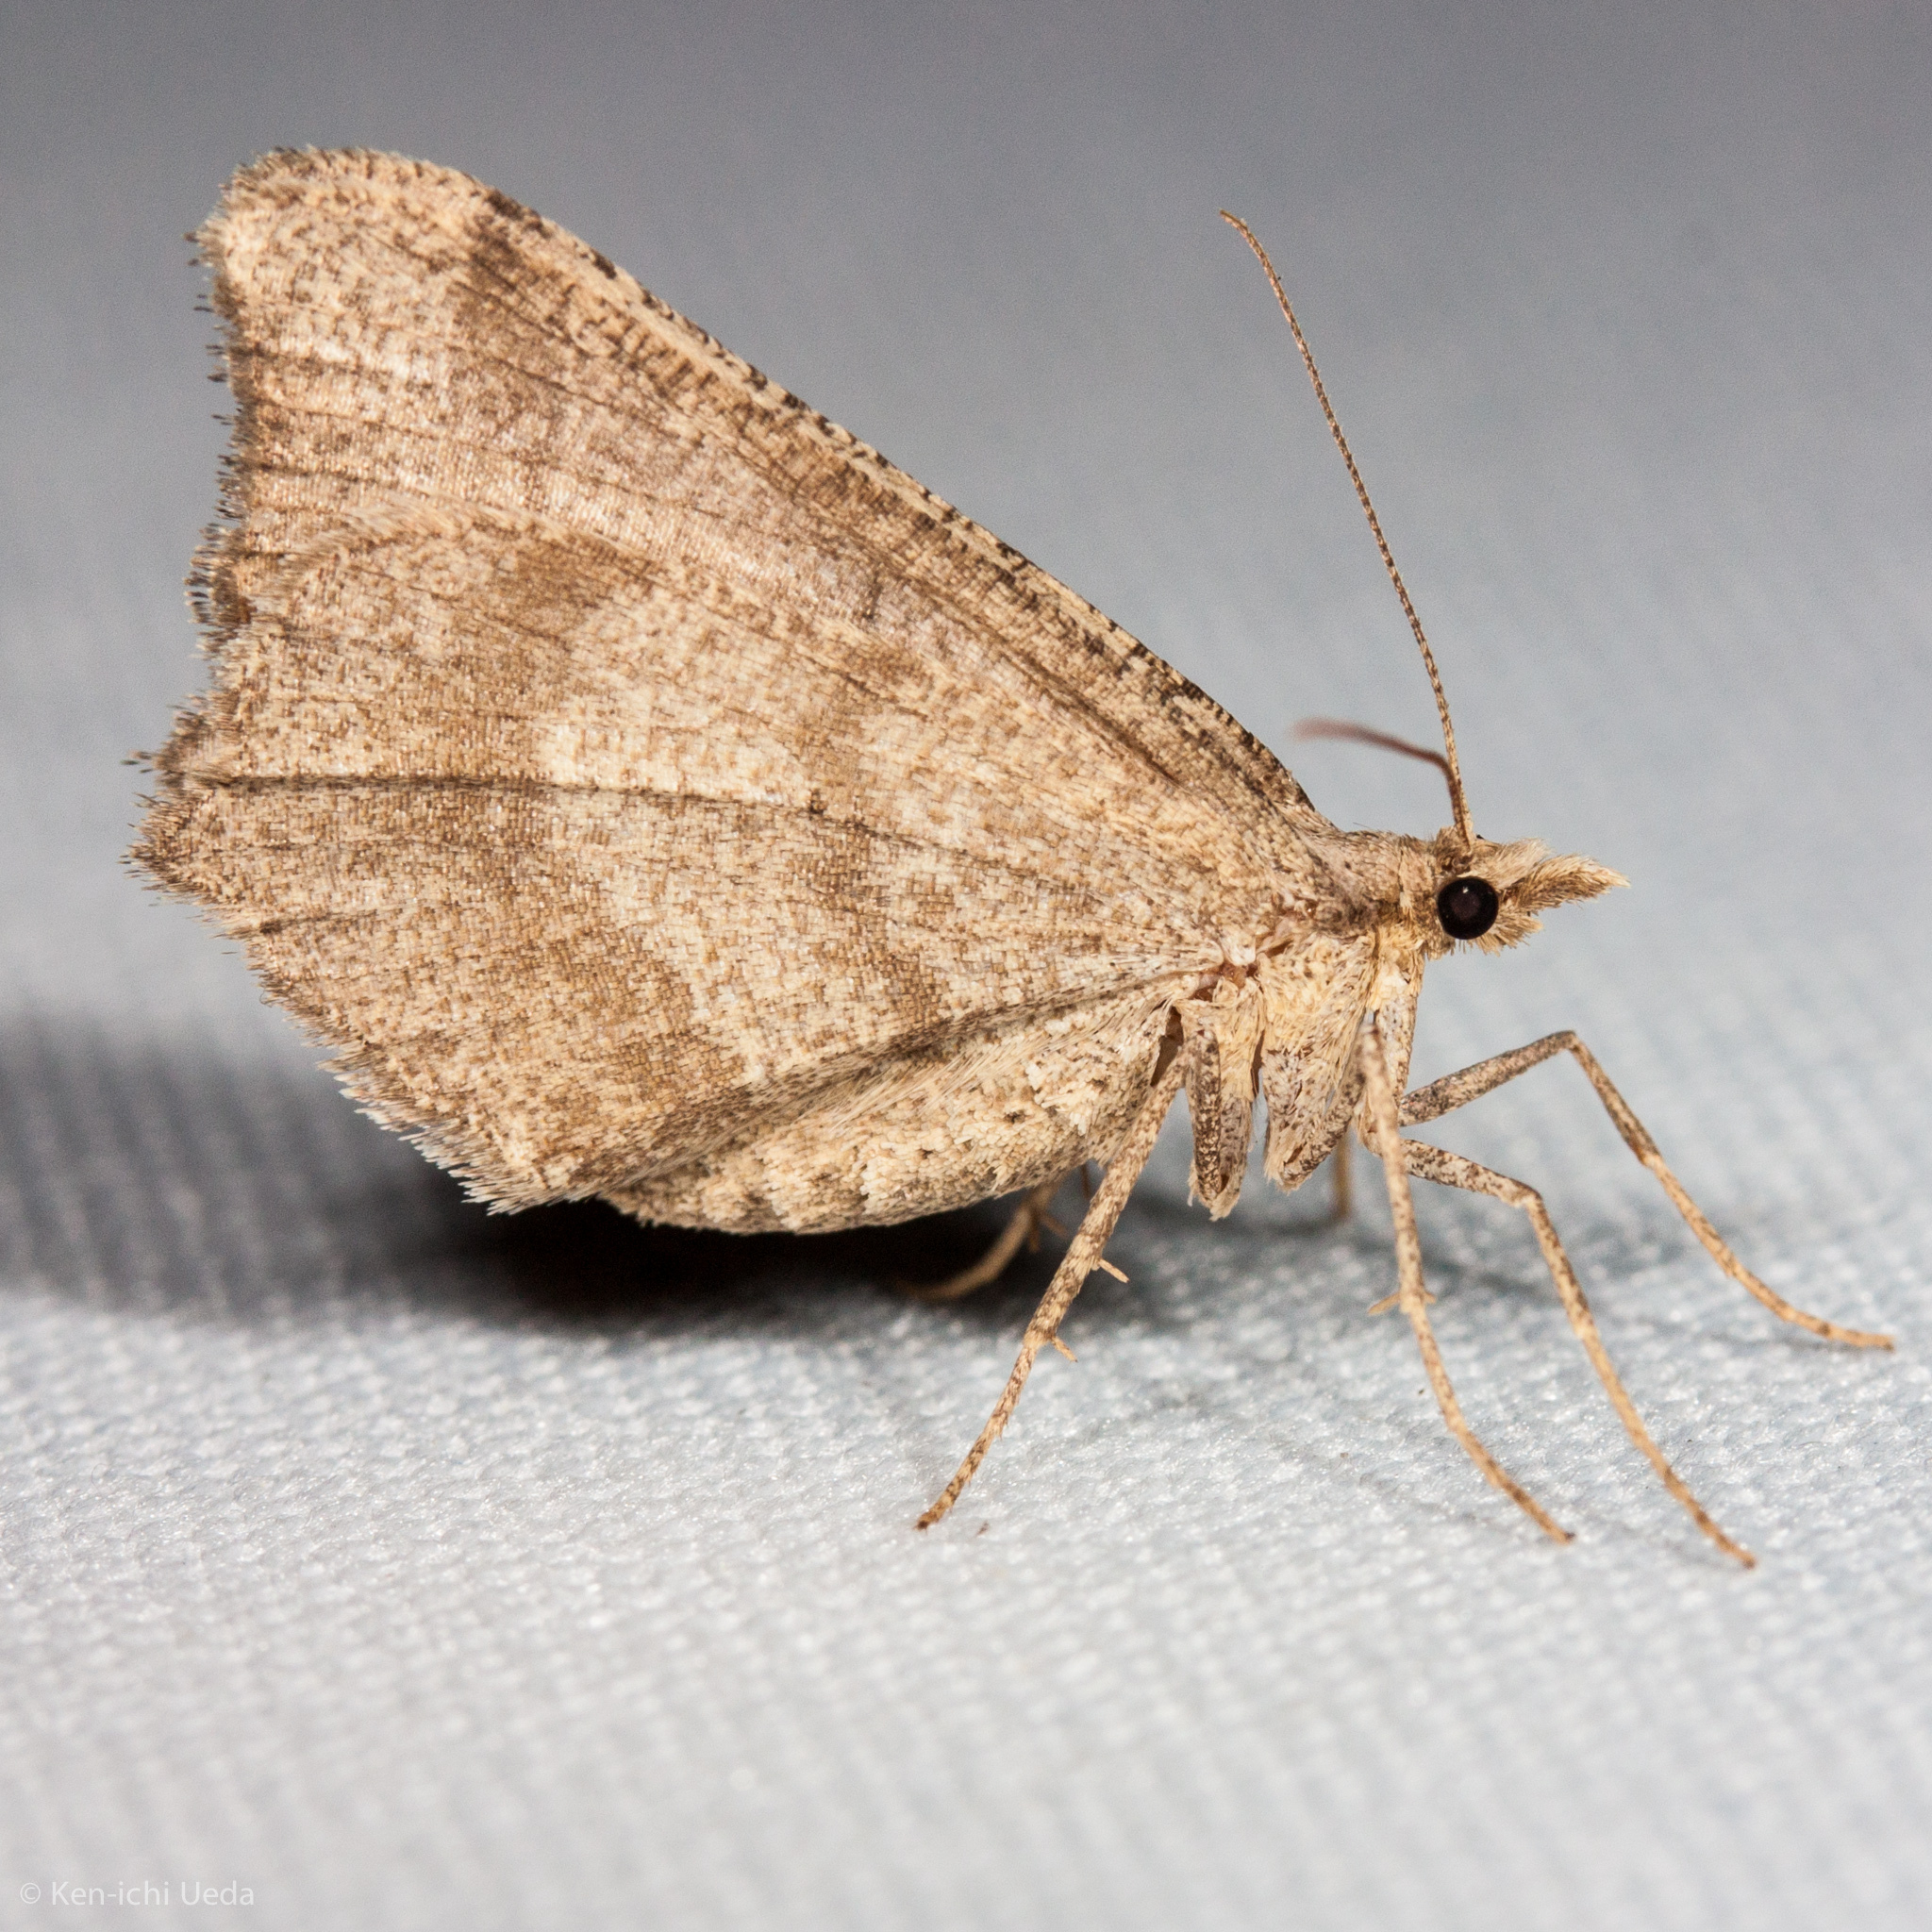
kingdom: Animalia
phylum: Arthropoda
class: Insecta
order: Lepidoptera
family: Geometridae
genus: Macaria
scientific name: Macaria marcescaria
